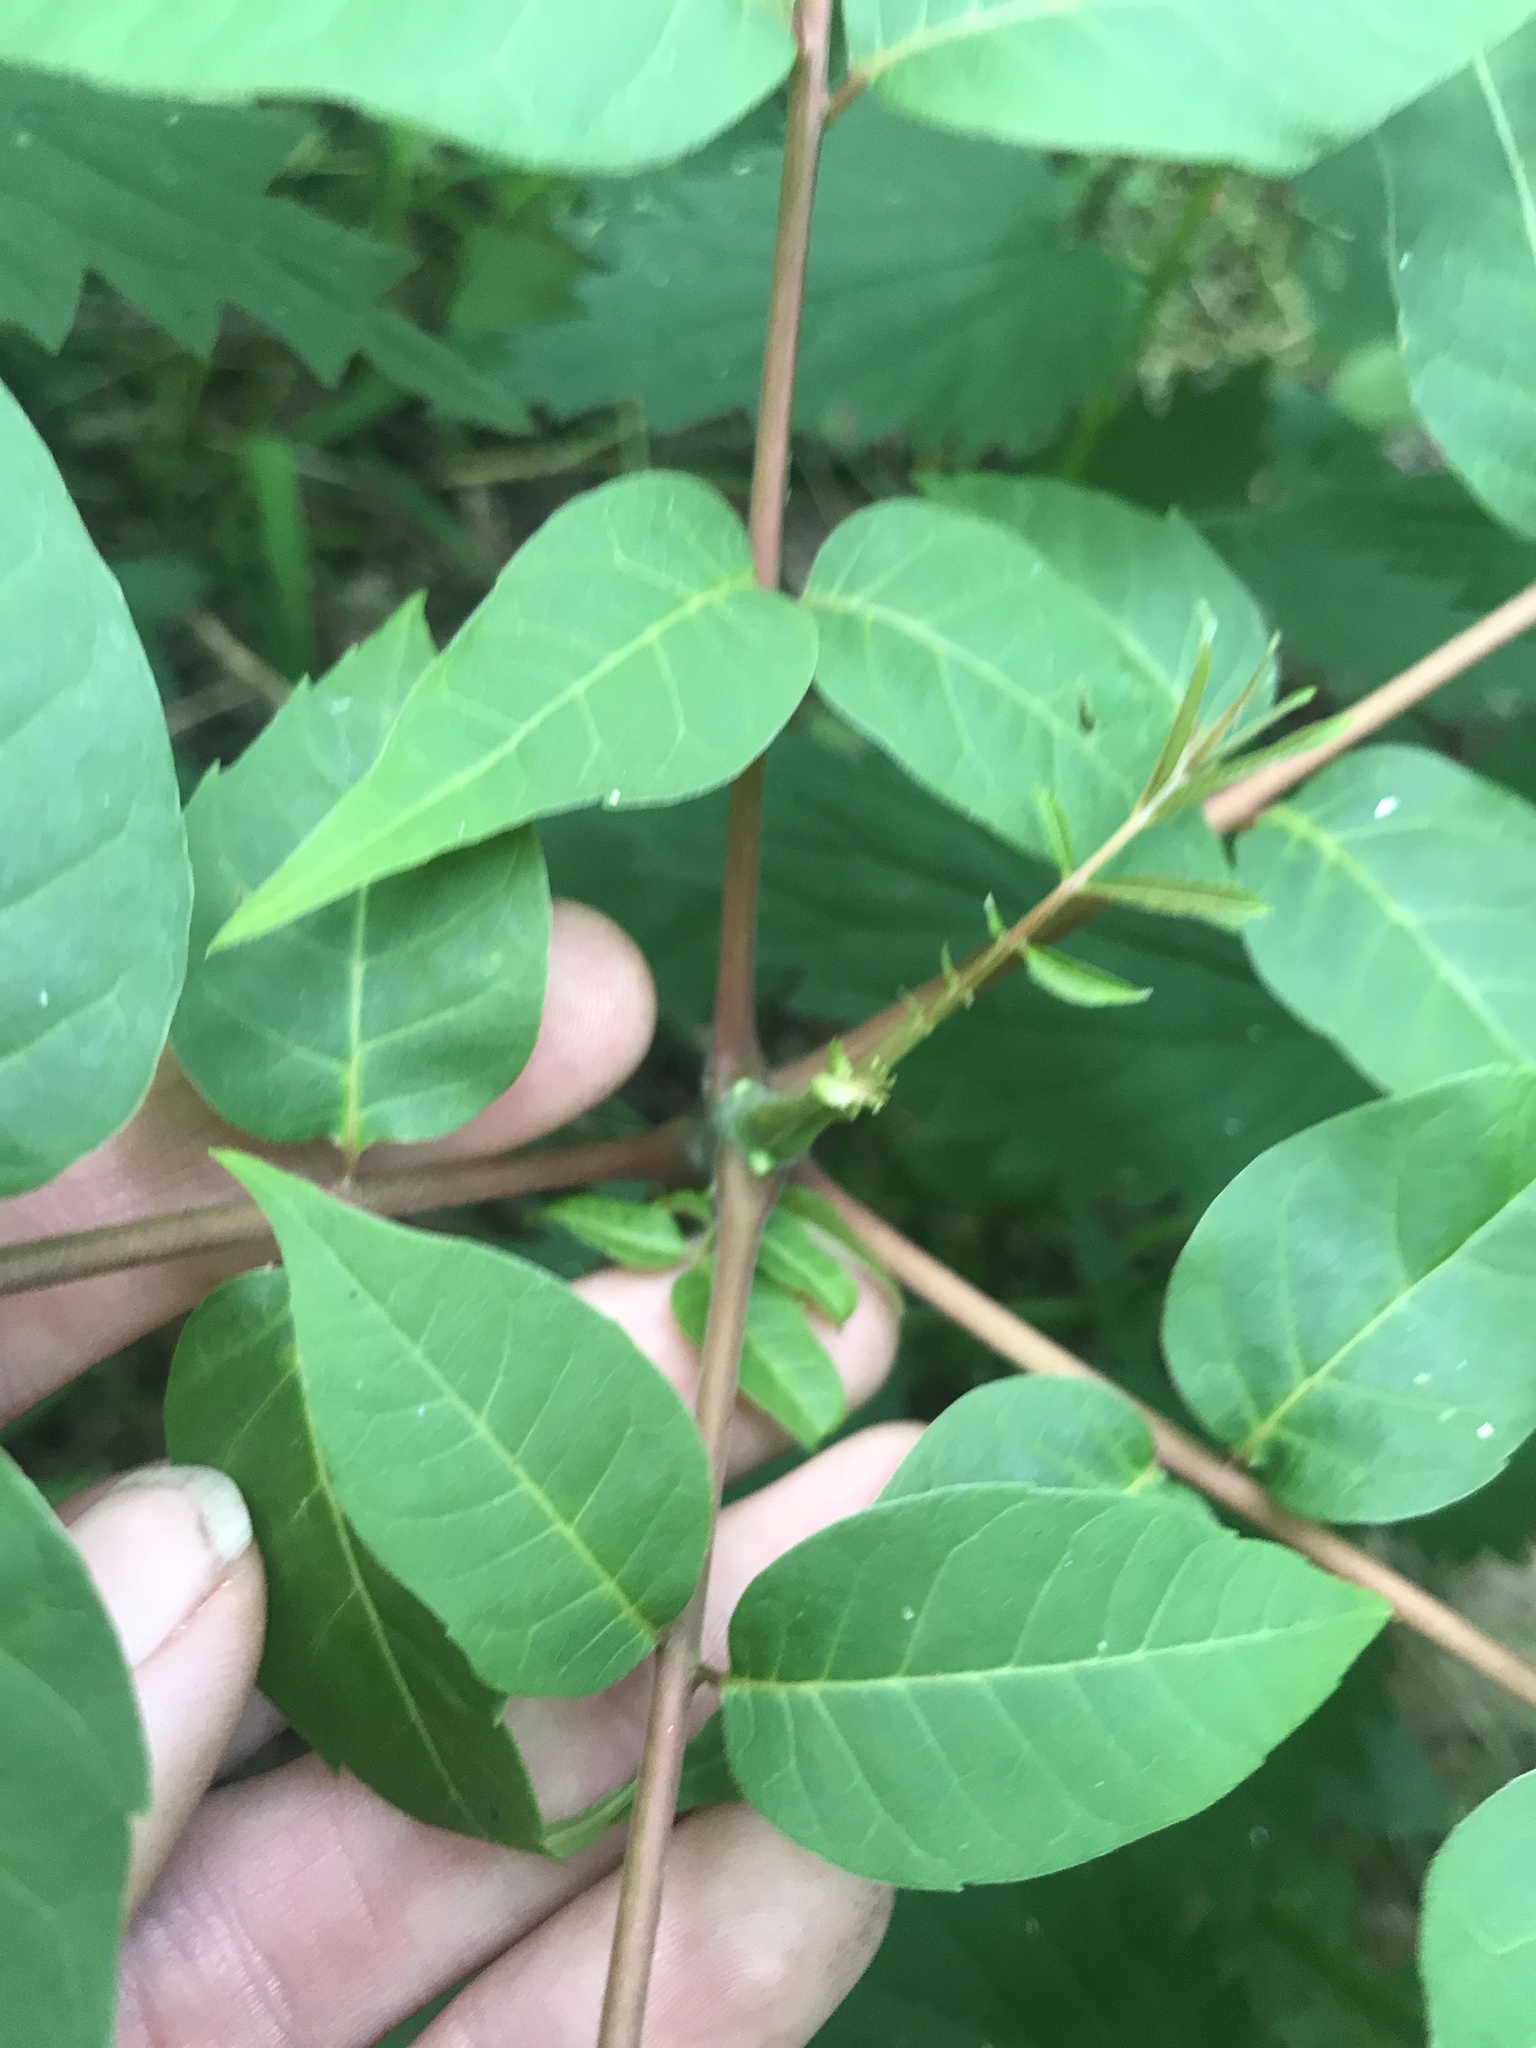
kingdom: Plantae
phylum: Tracheophyta
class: Magnoliopsida
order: Sapindales
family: Meliaceae
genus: Toona
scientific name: Toona sinensis
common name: Red toon
